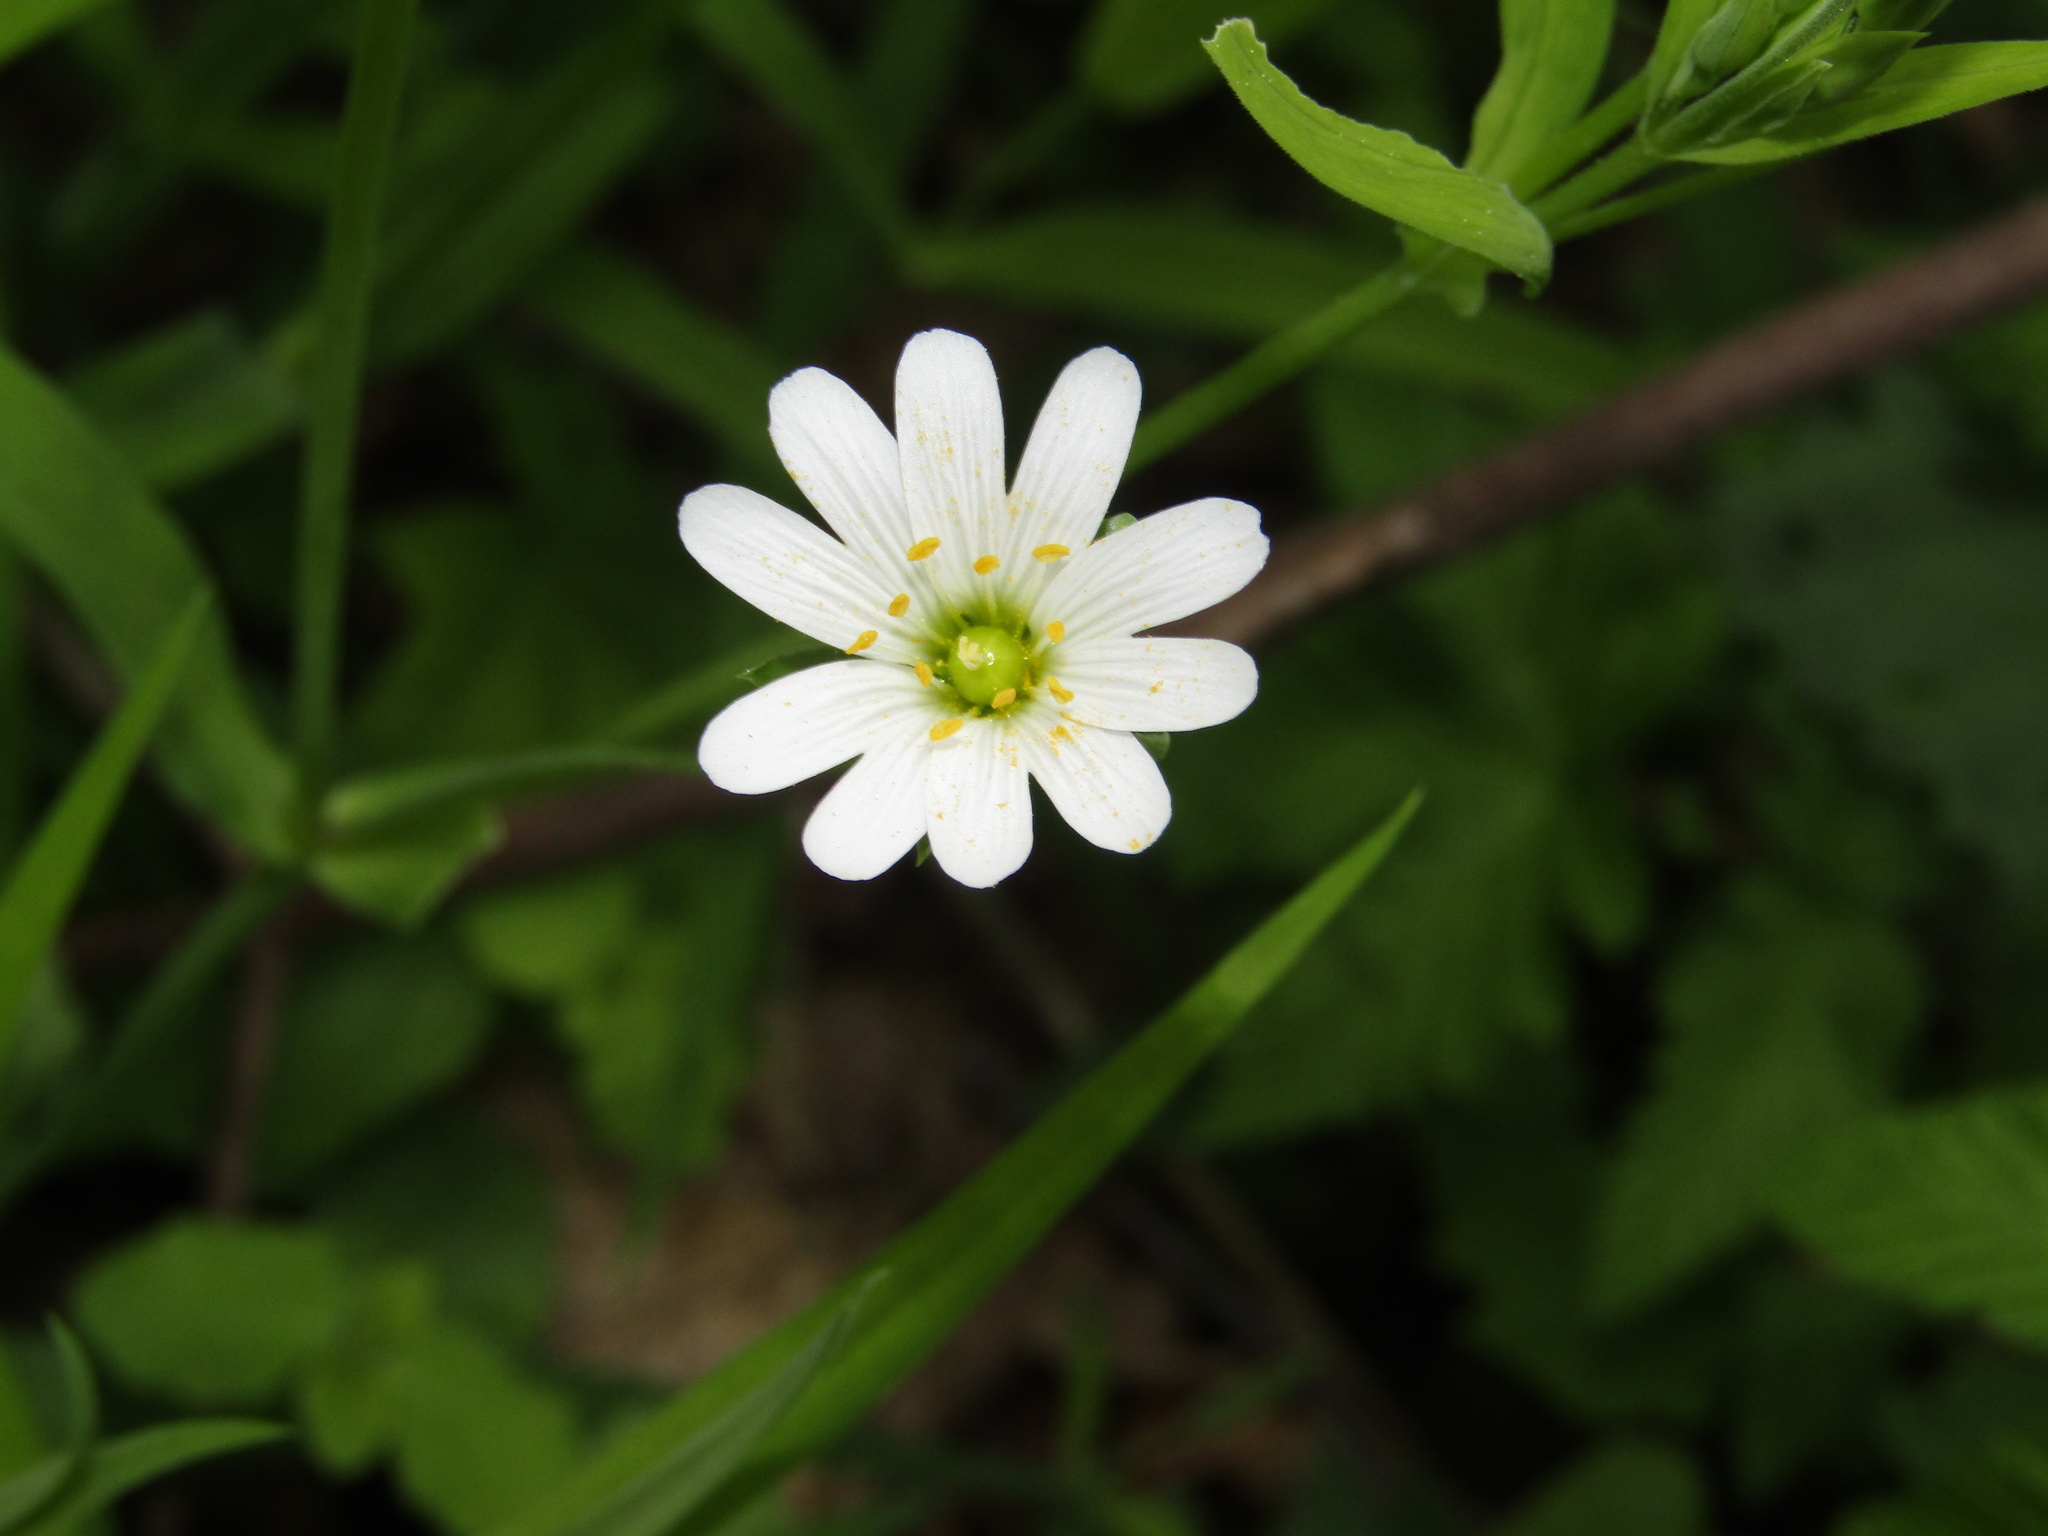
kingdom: Plantae
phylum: Tracheophyta
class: Magnoliopsida
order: Caryophyllales
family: Caryophyllaceae
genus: Rabelera
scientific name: Rabelera holostea
